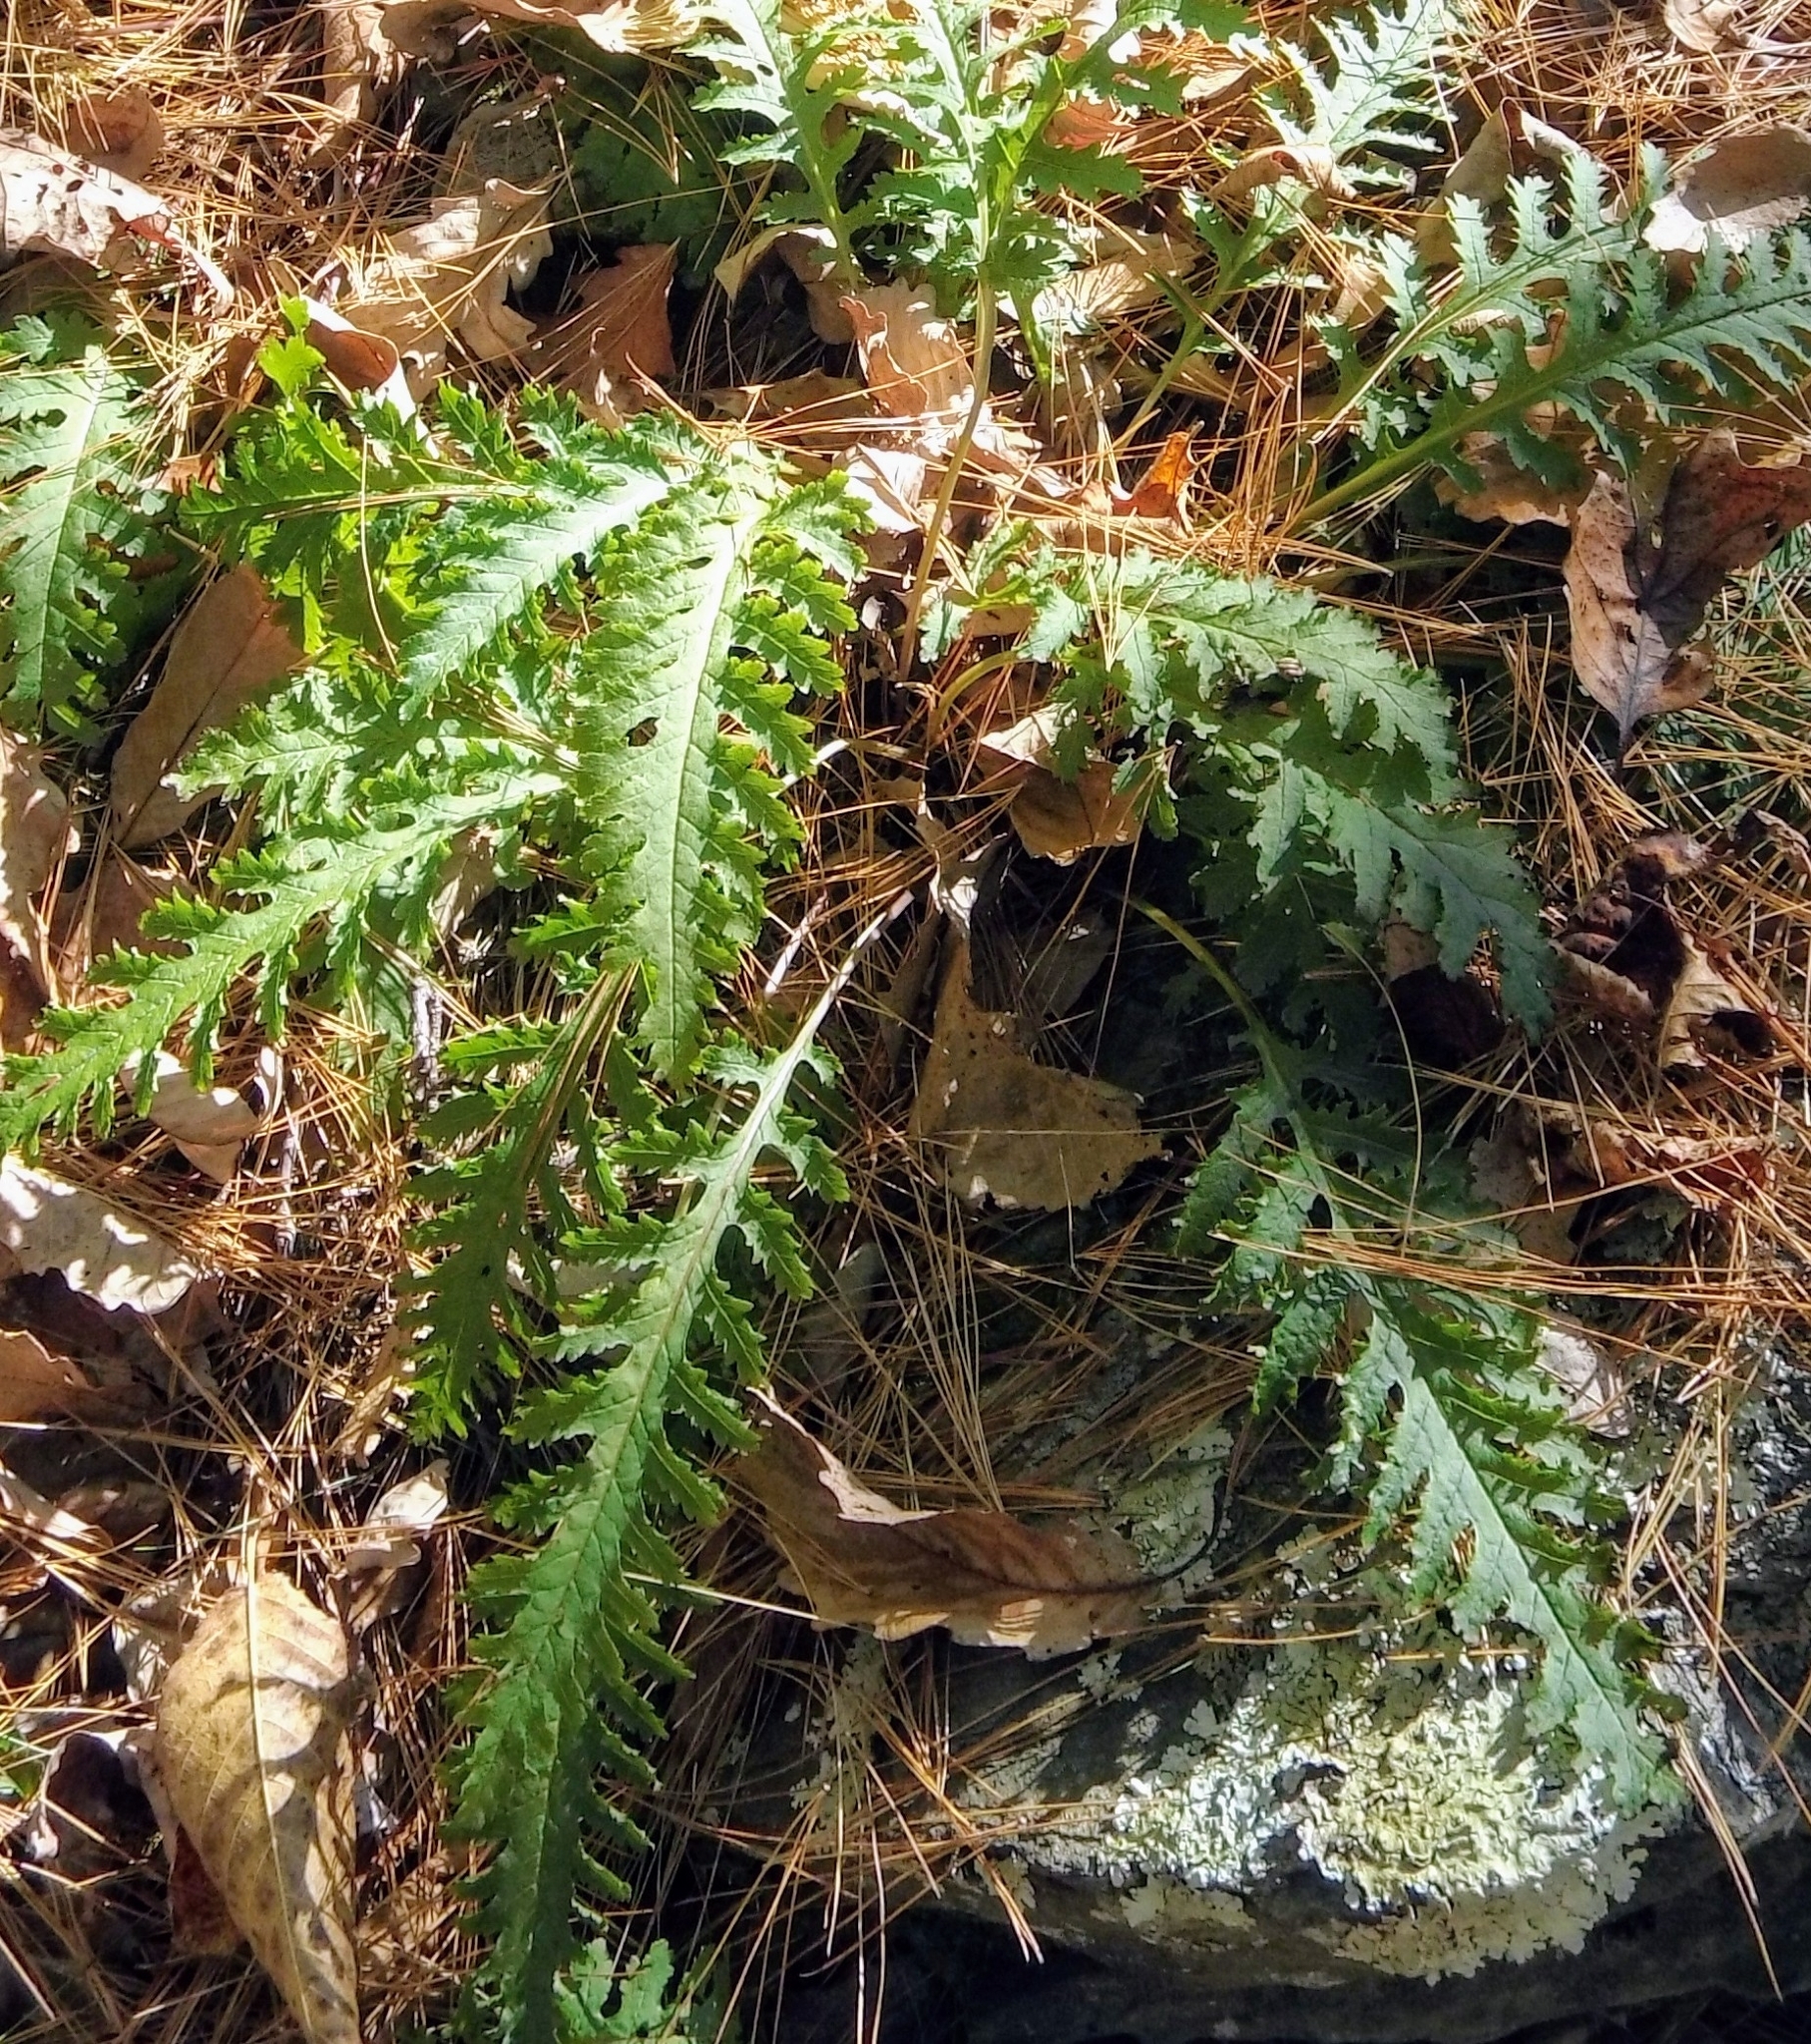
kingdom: Plantae
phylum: Tracheophyta
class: Magnoliopsida
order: Lamiales
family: Orobanchaceae
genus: Pedicularis
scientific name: Pedicularis canadensis
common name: Early lousewort
